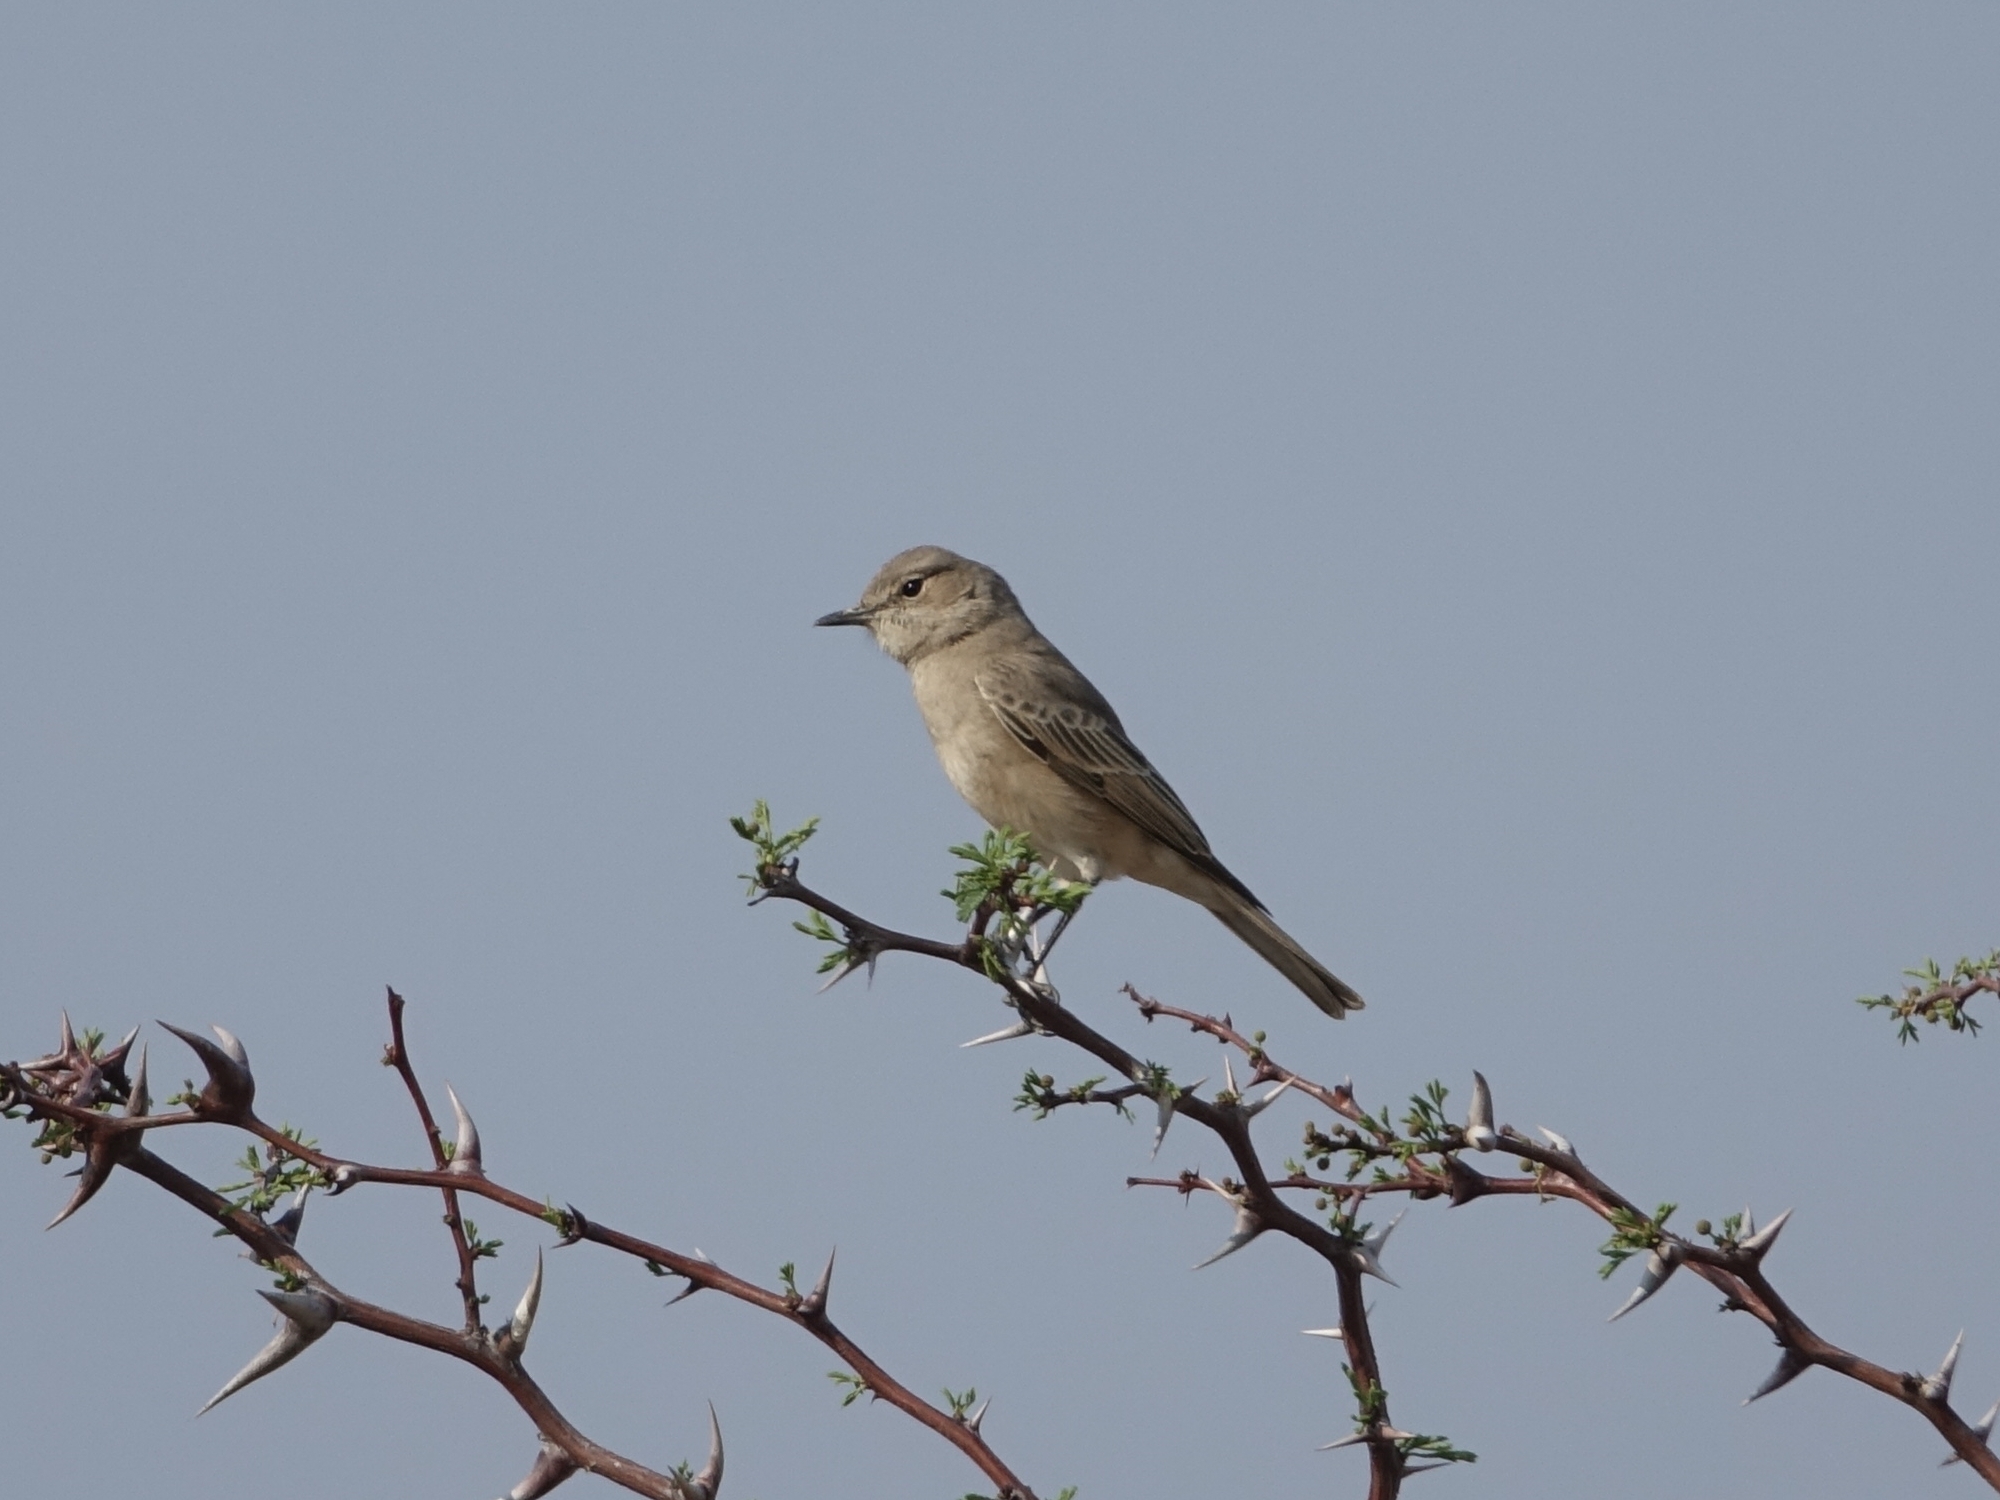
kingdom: Animalia
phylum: Chordata
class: Aves
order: Passeriformes
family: Muscicapidae
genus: Bradornis
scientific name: Bradornis infuscatus
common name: Chat flycatcher
